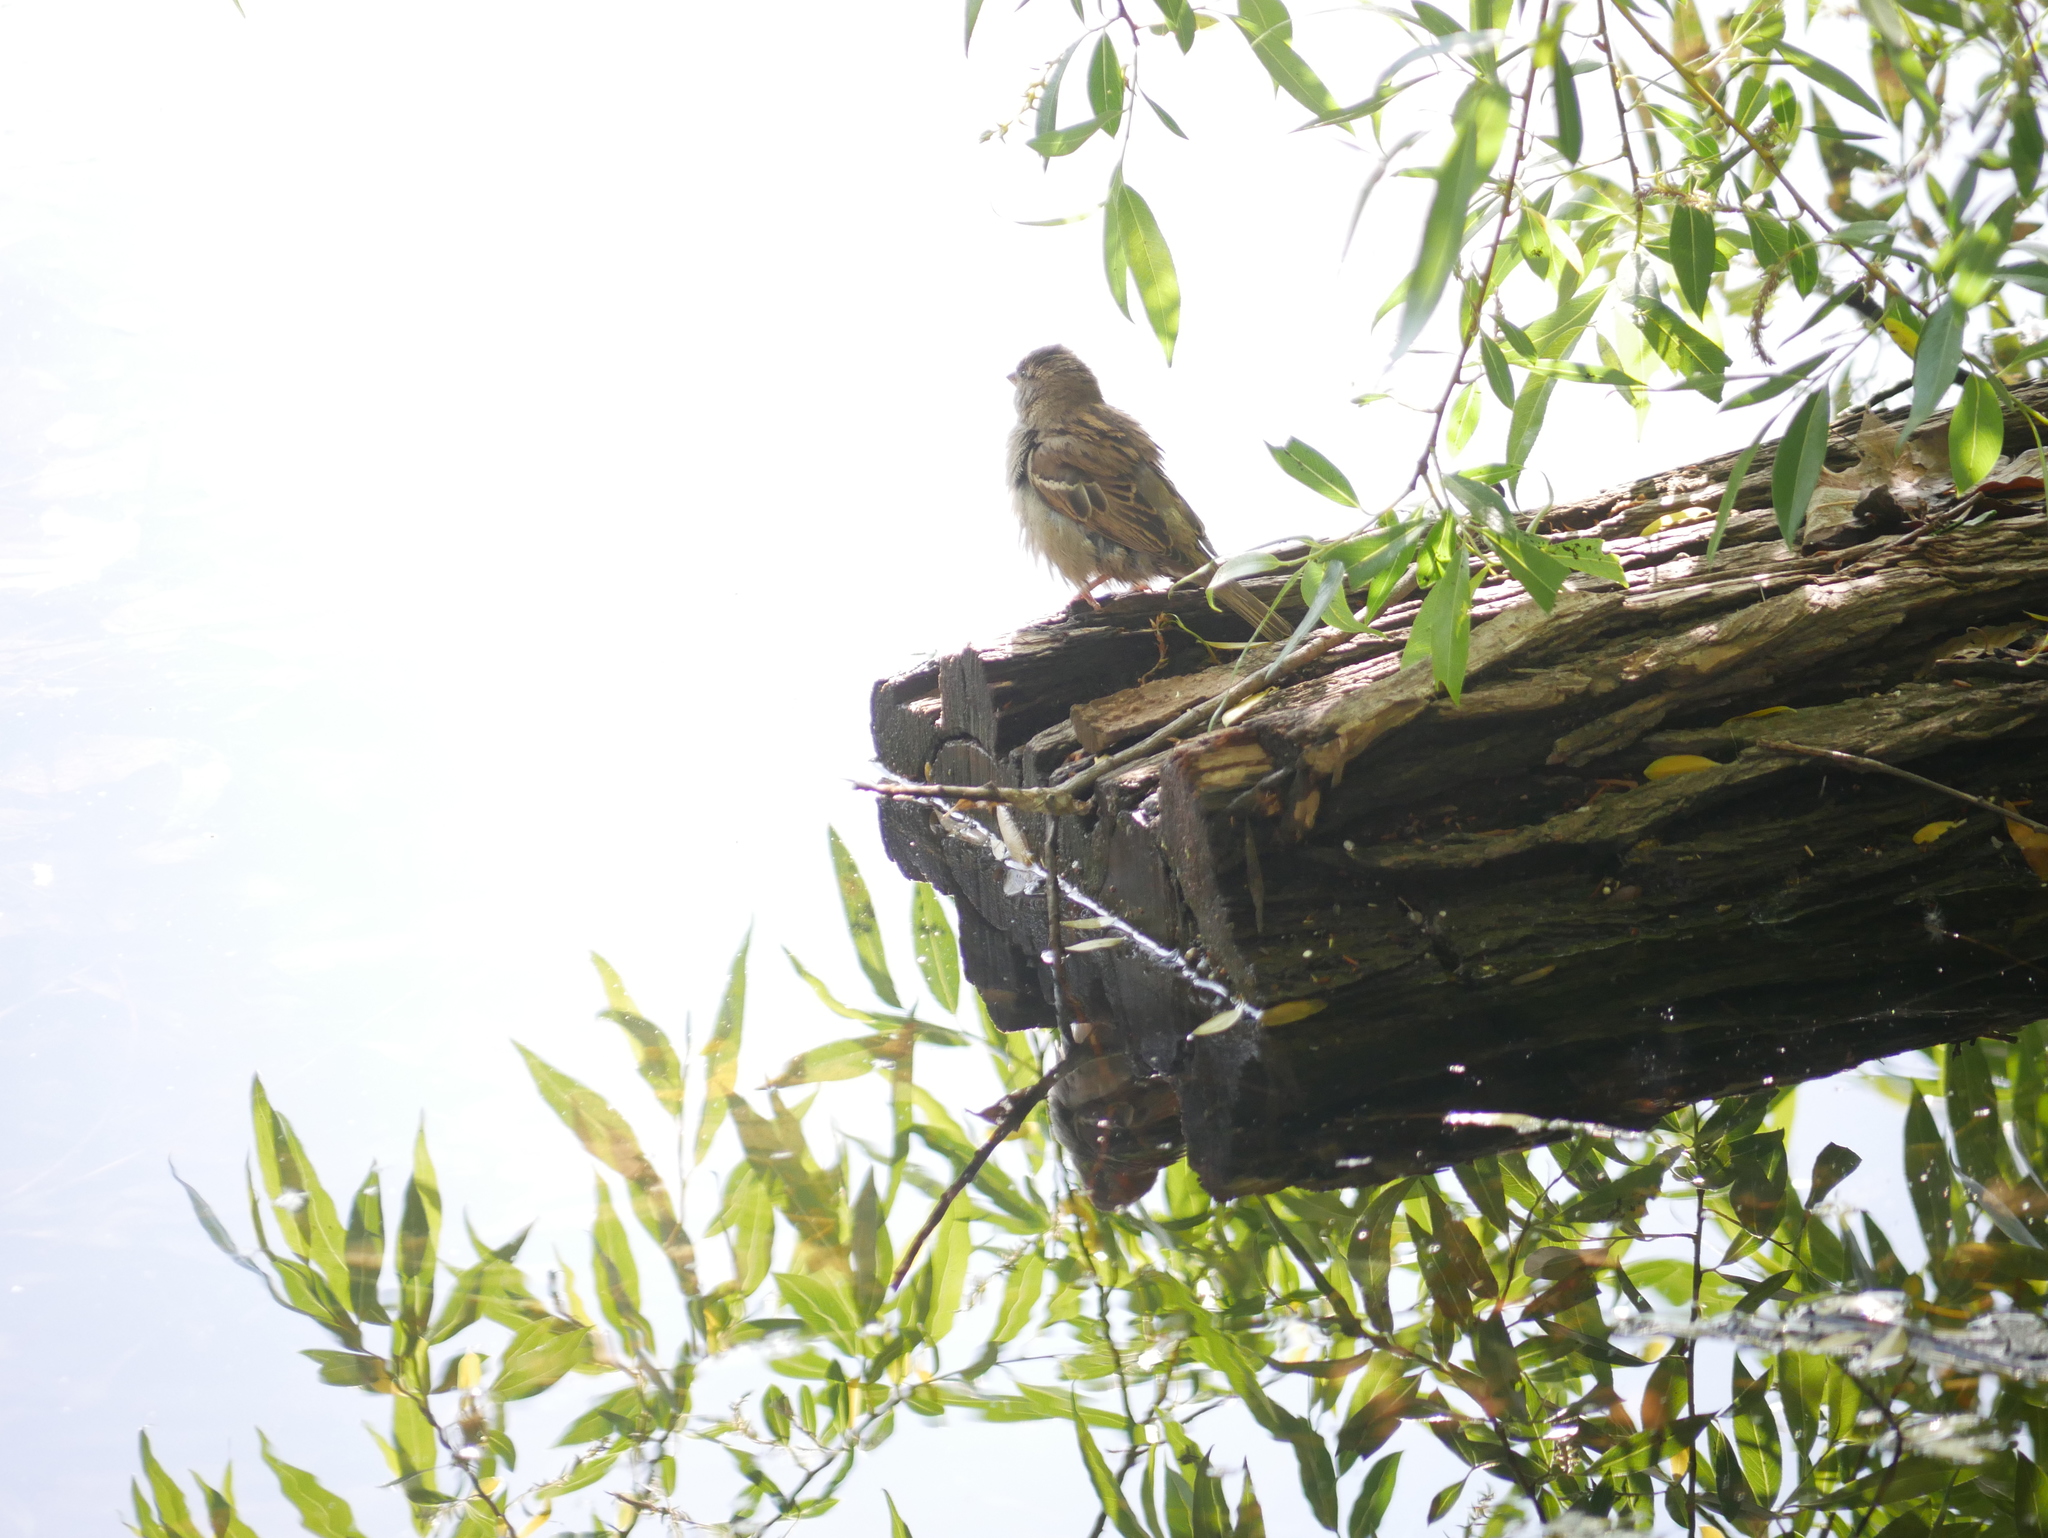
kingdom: Animalia
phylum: Chordata
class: Aves
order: Passeriformes
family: Passeridae
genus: Passer
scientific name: Passer domesticus
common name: House sparrow
